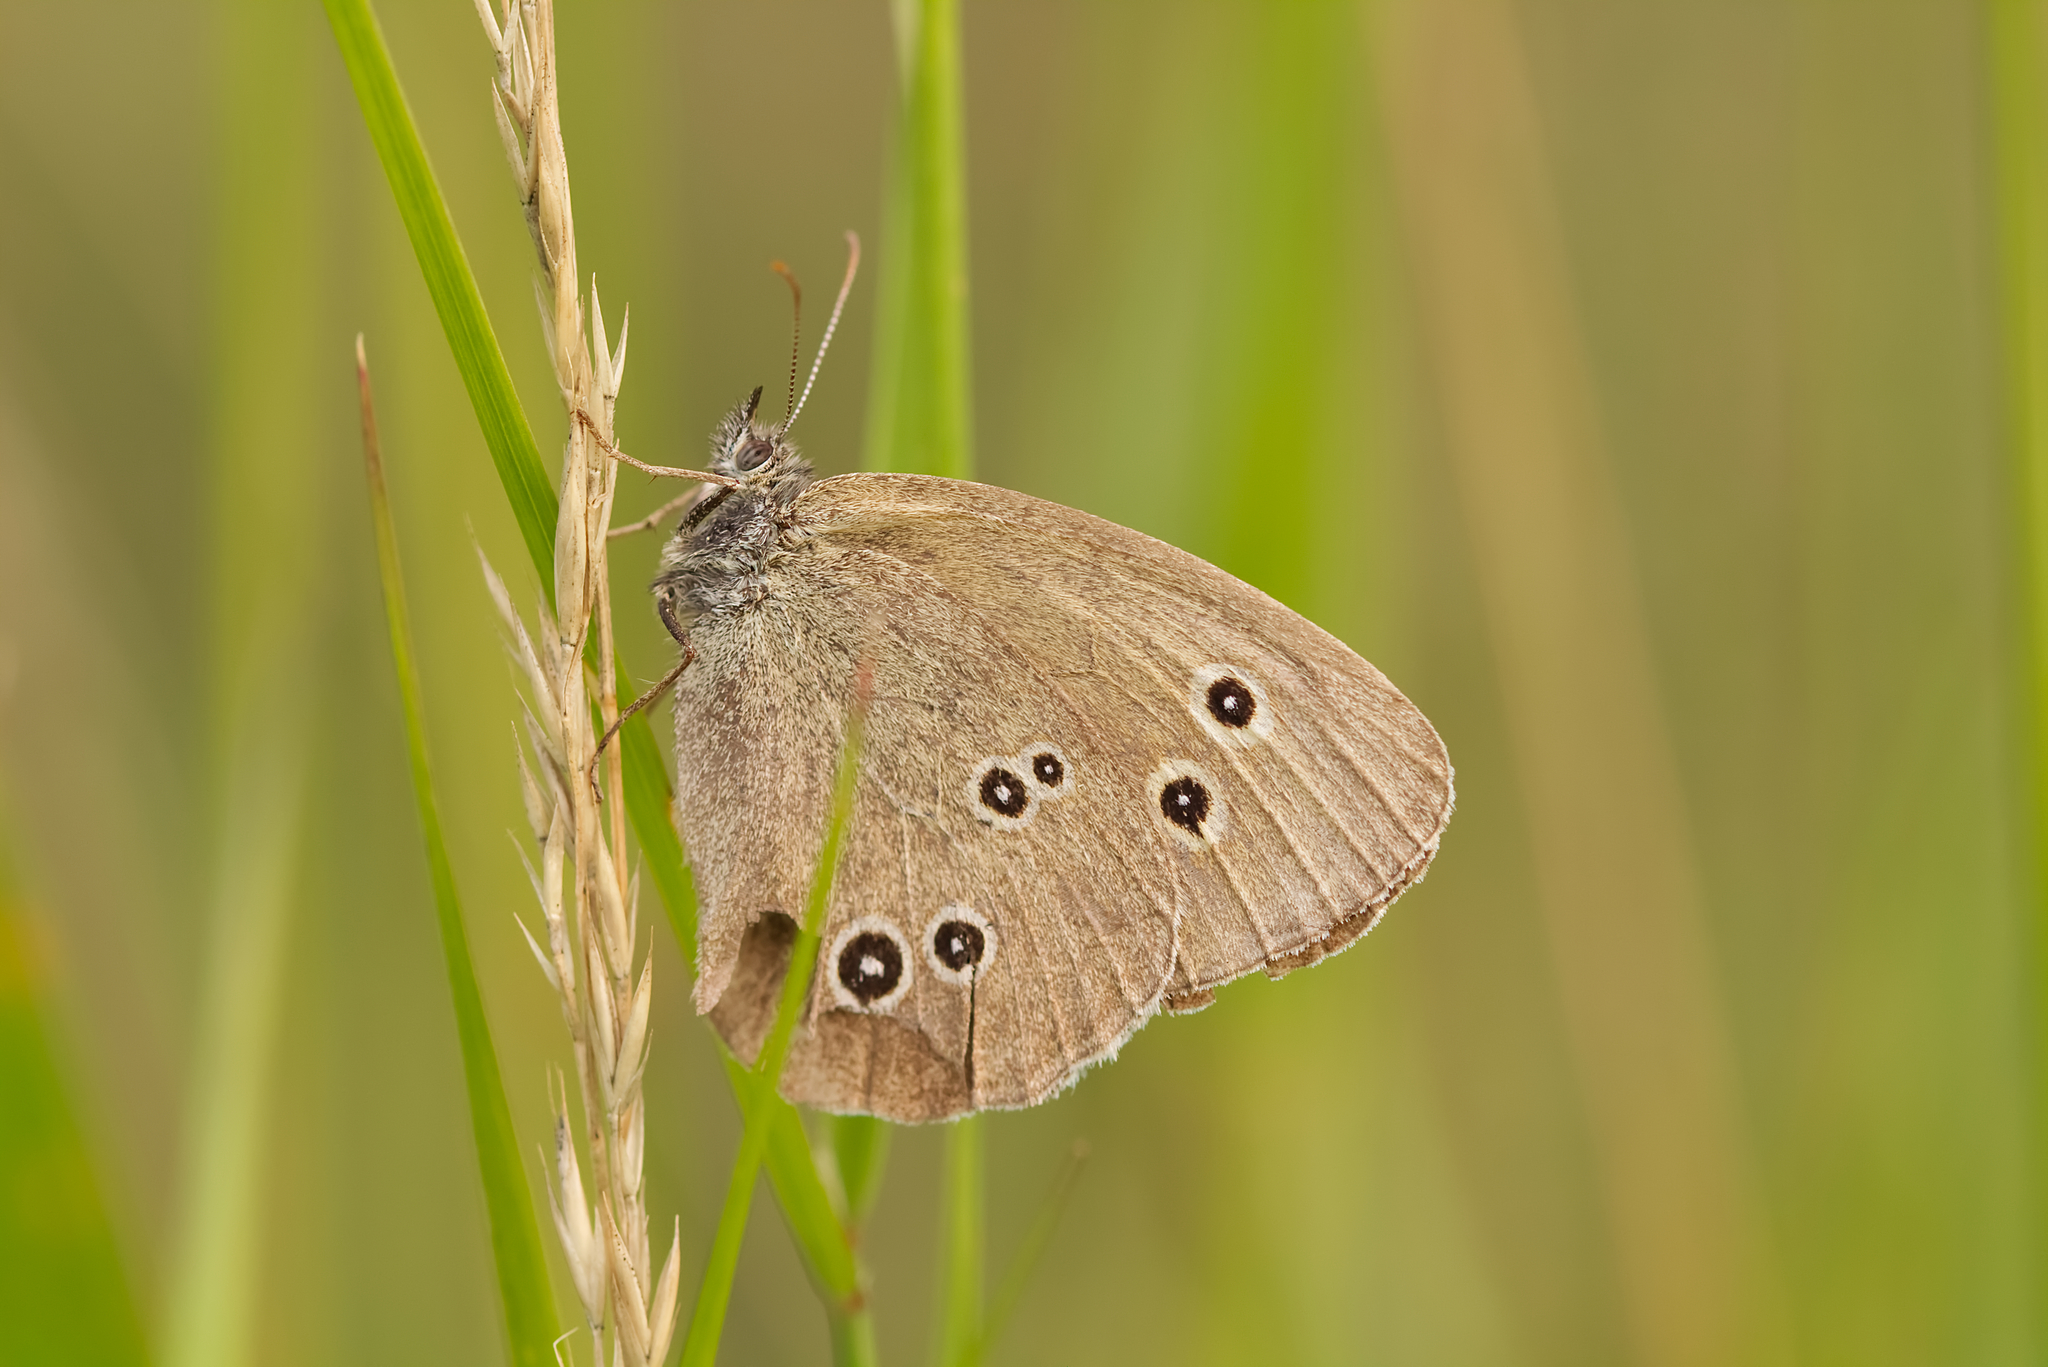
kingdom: Animalia
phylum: Arthropoda
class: Insecta
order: Lepidoptera
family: Nymphalidae
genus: Aphantopus
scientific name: Aphantopus hyperantus
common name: Ringlet
